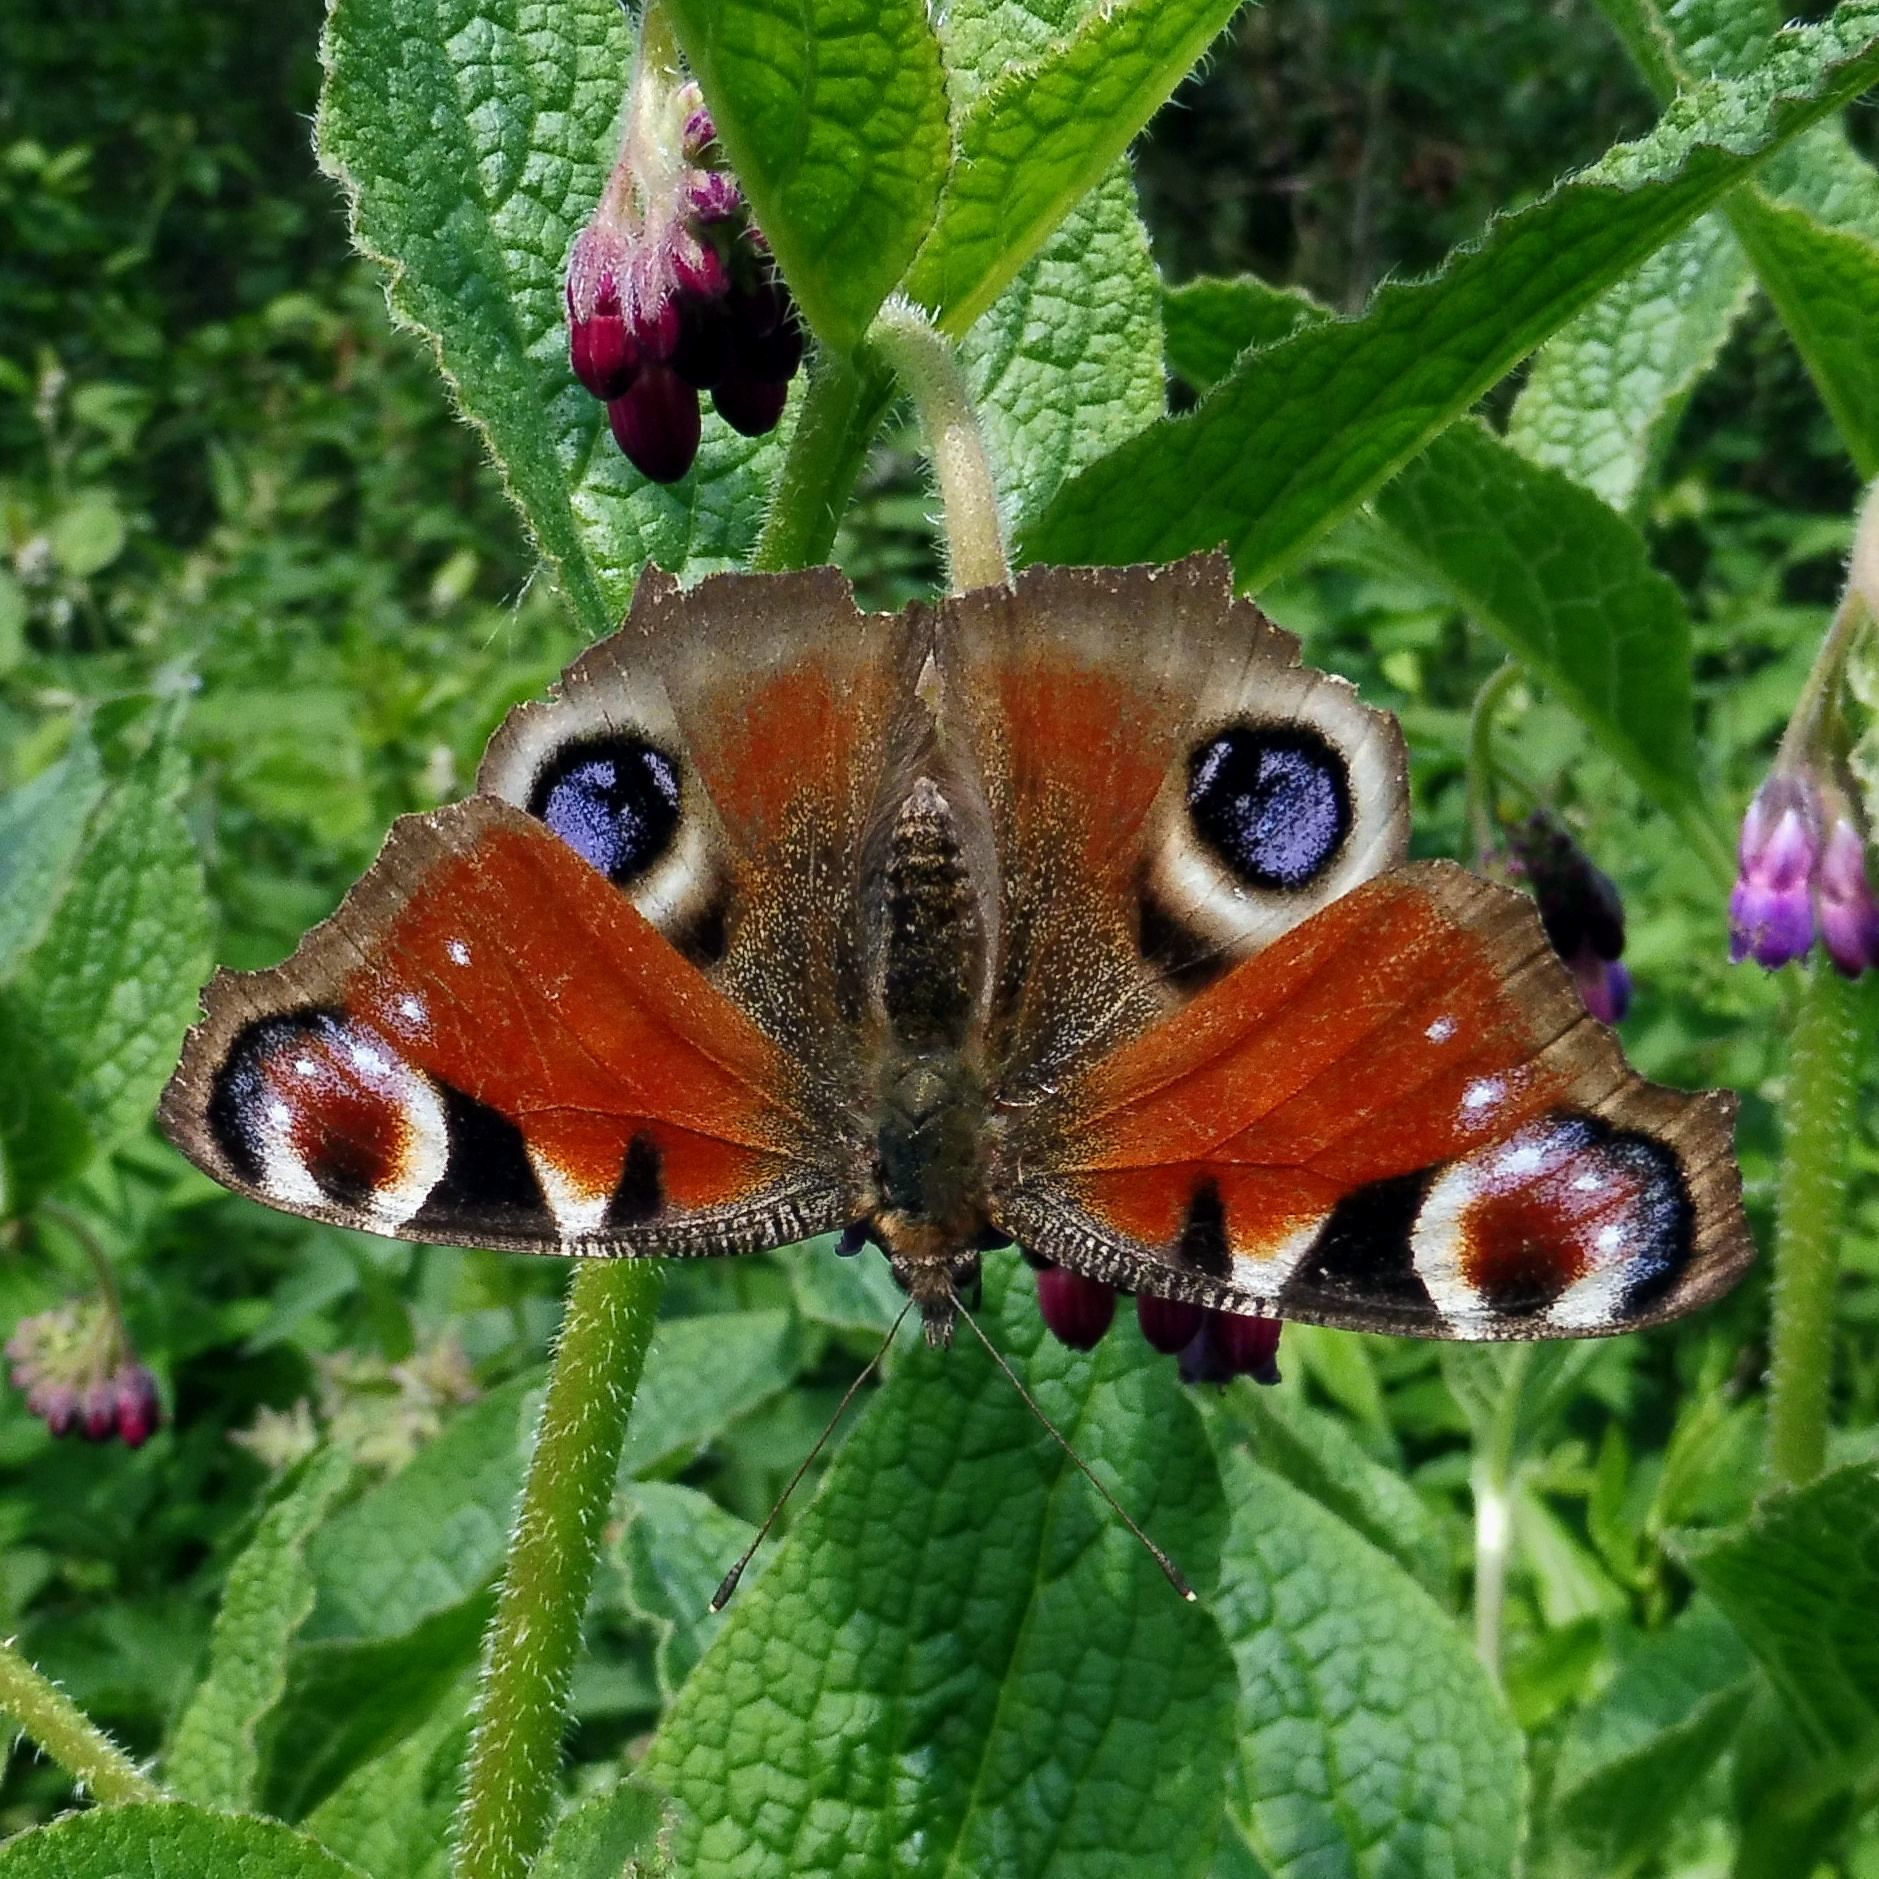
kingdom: Animalia
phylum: Arthropoda
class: Insecta
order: Lepidoptera
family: Nymphalidae
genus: Aglais
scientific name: Aglais io
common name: Peacock
